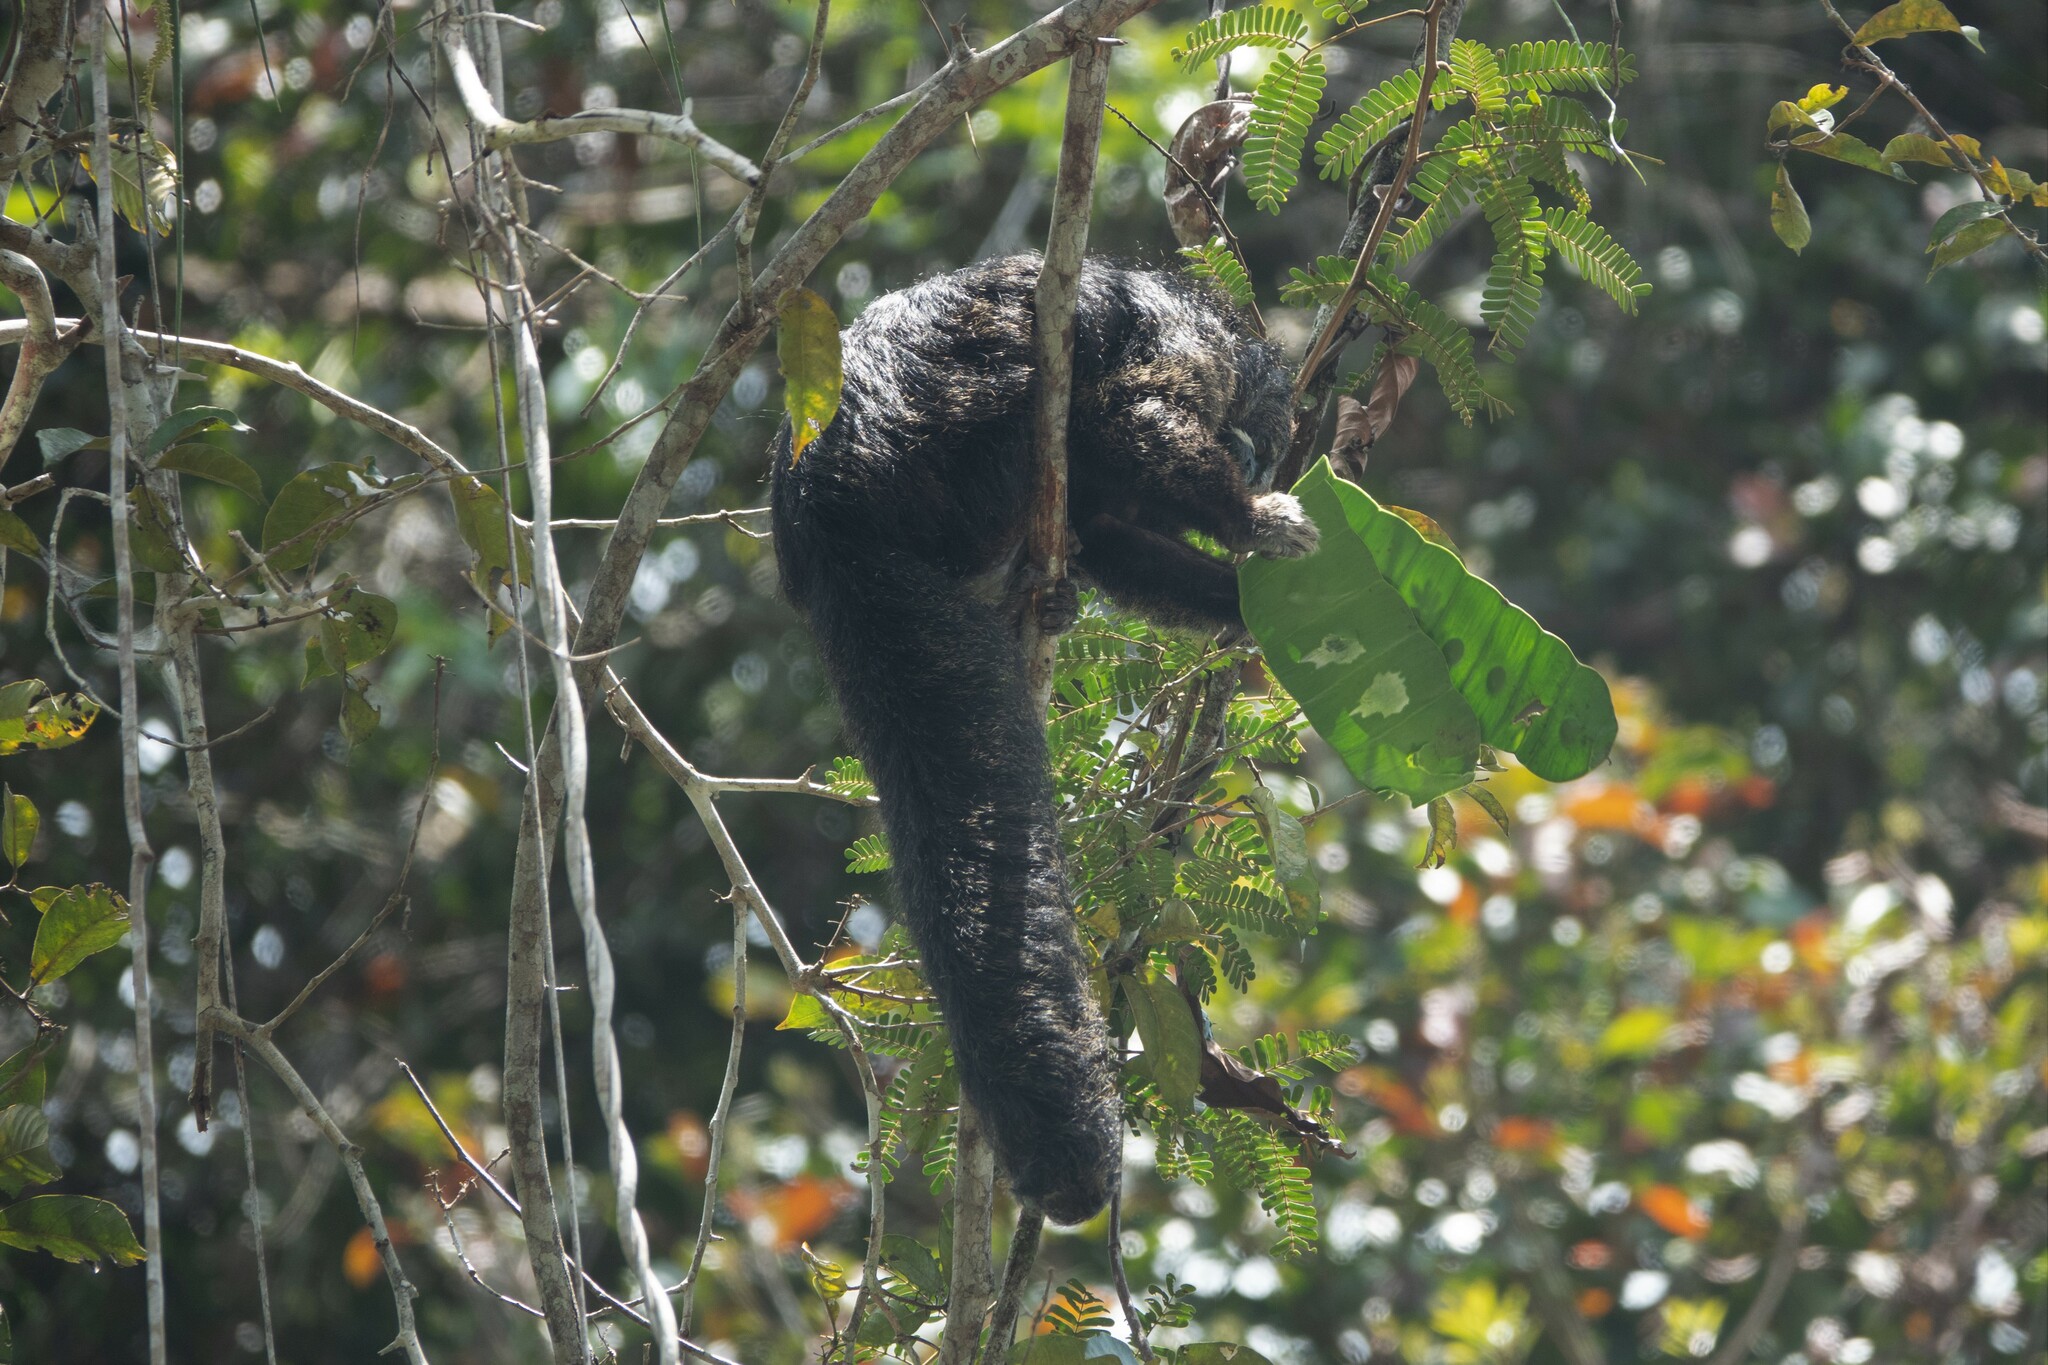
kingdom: Animalia
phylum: Chordata
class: Mammalia
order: Primates
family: Pitheciidae
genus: Pithecia
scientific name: Pithecia milleri
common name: Miller's saki
